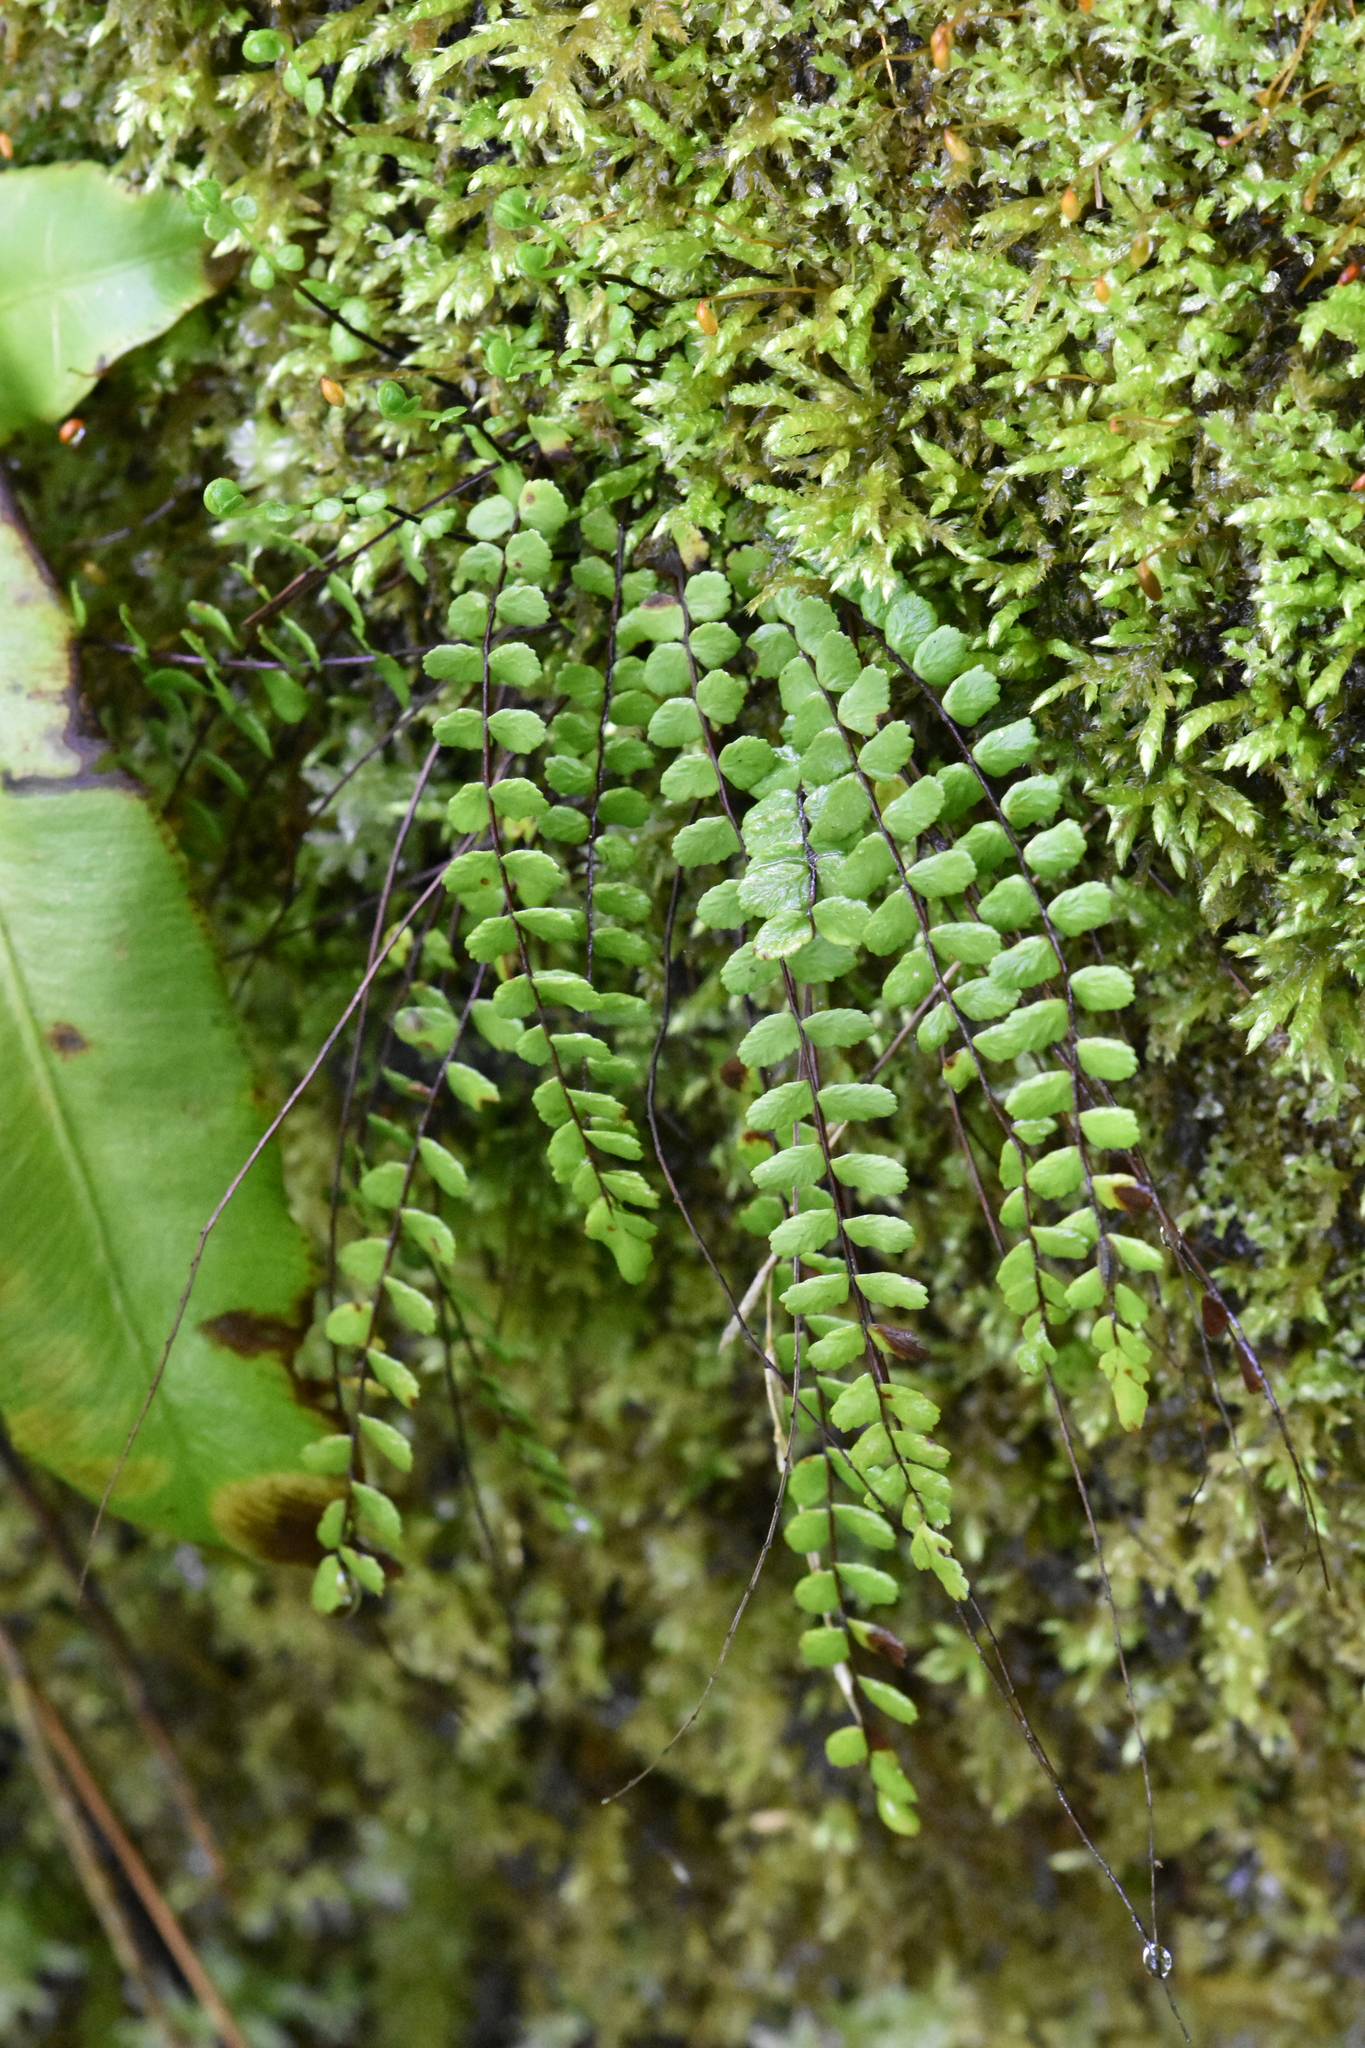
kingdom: Plantae
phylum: Tracheophyta
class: Polypodiopsida
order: Polypodiales
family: Aspleniaceae
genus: Asplenium
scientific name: Asplenium trichomanes
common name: Maidenhair spleenwort
